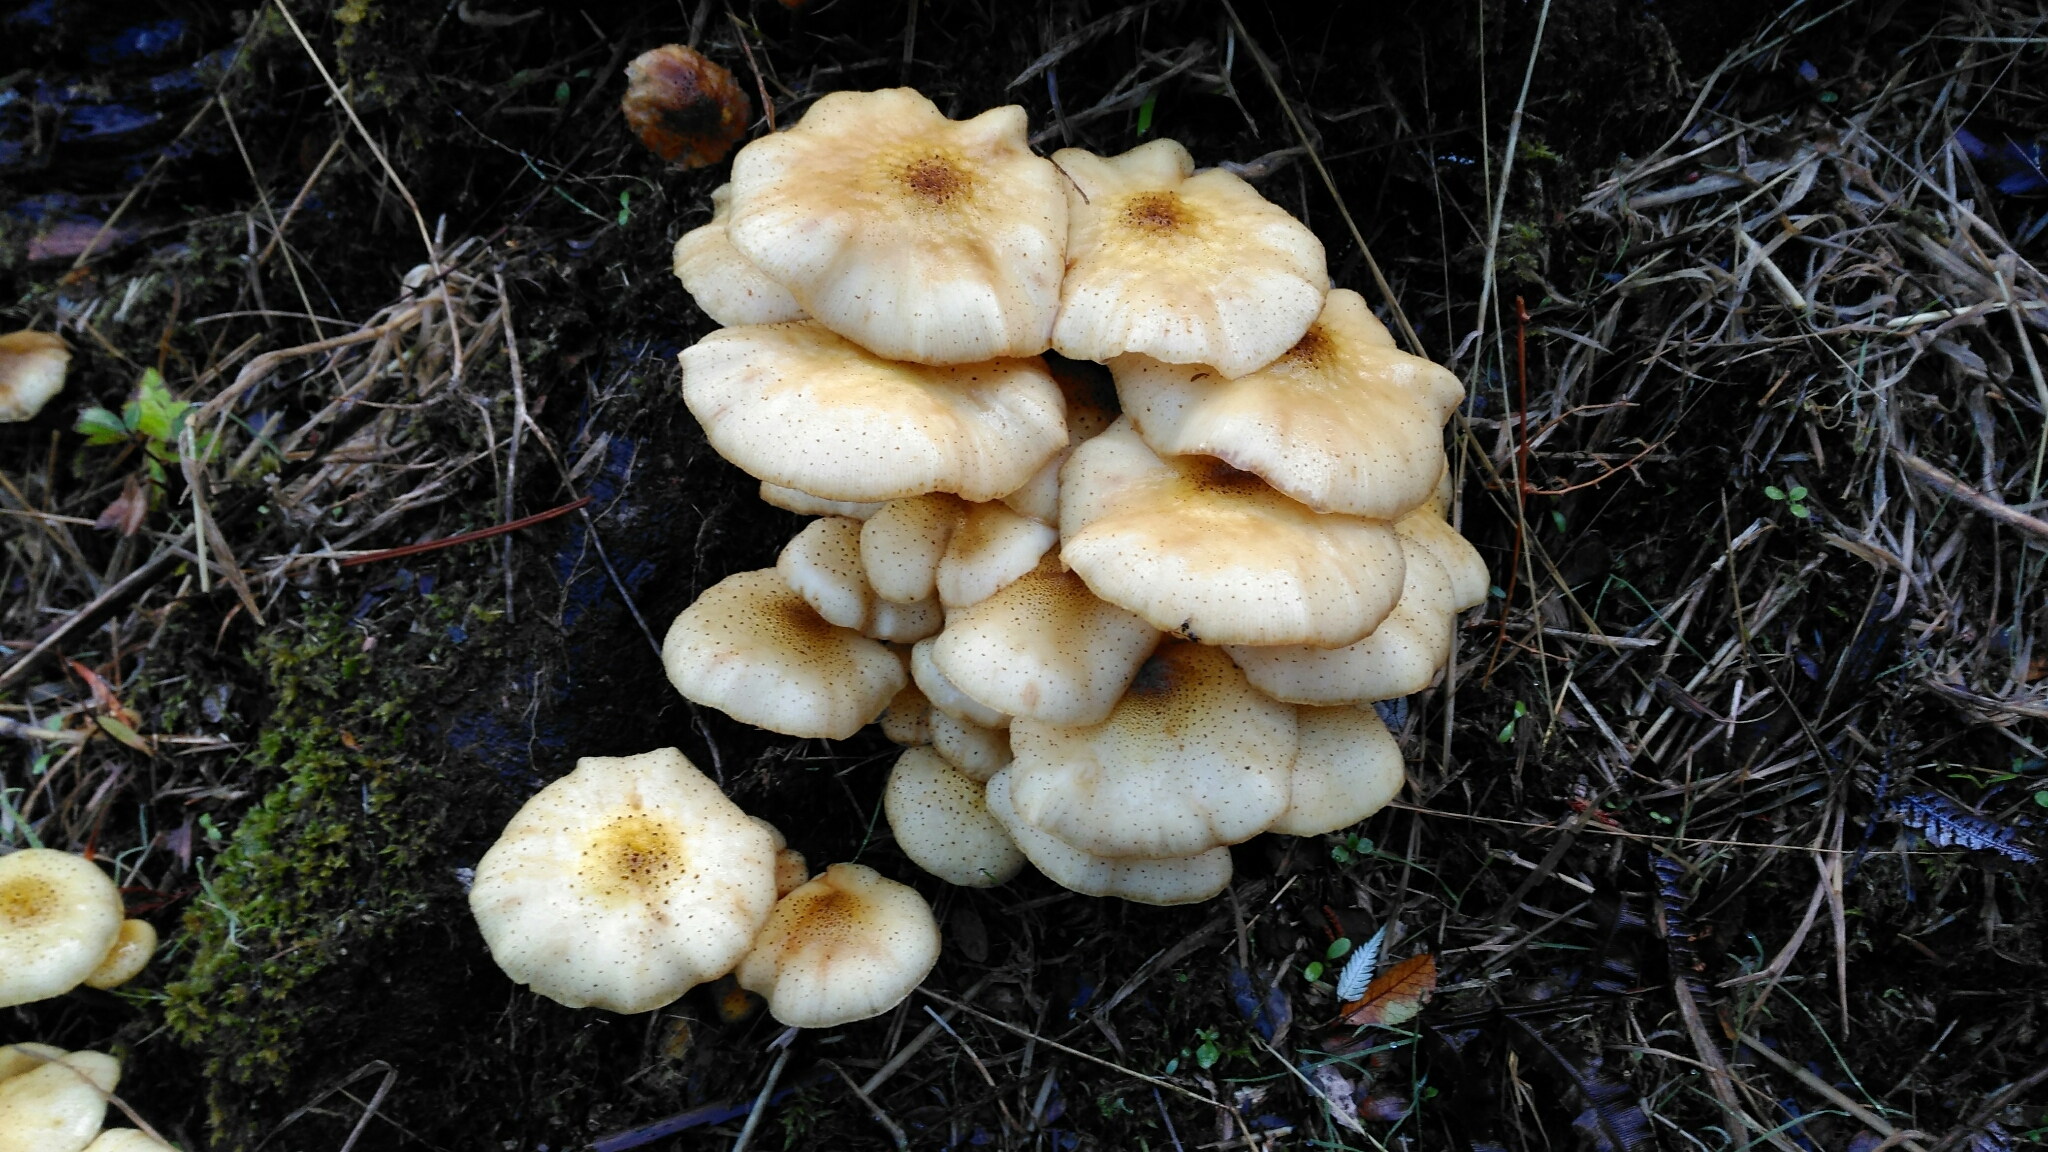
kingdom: Fungi
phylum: Basidiomycota
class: Agaricomycetes
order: Agaricales
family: Physalacriaceae
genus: Armillaria
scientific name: Armillaria limonea
